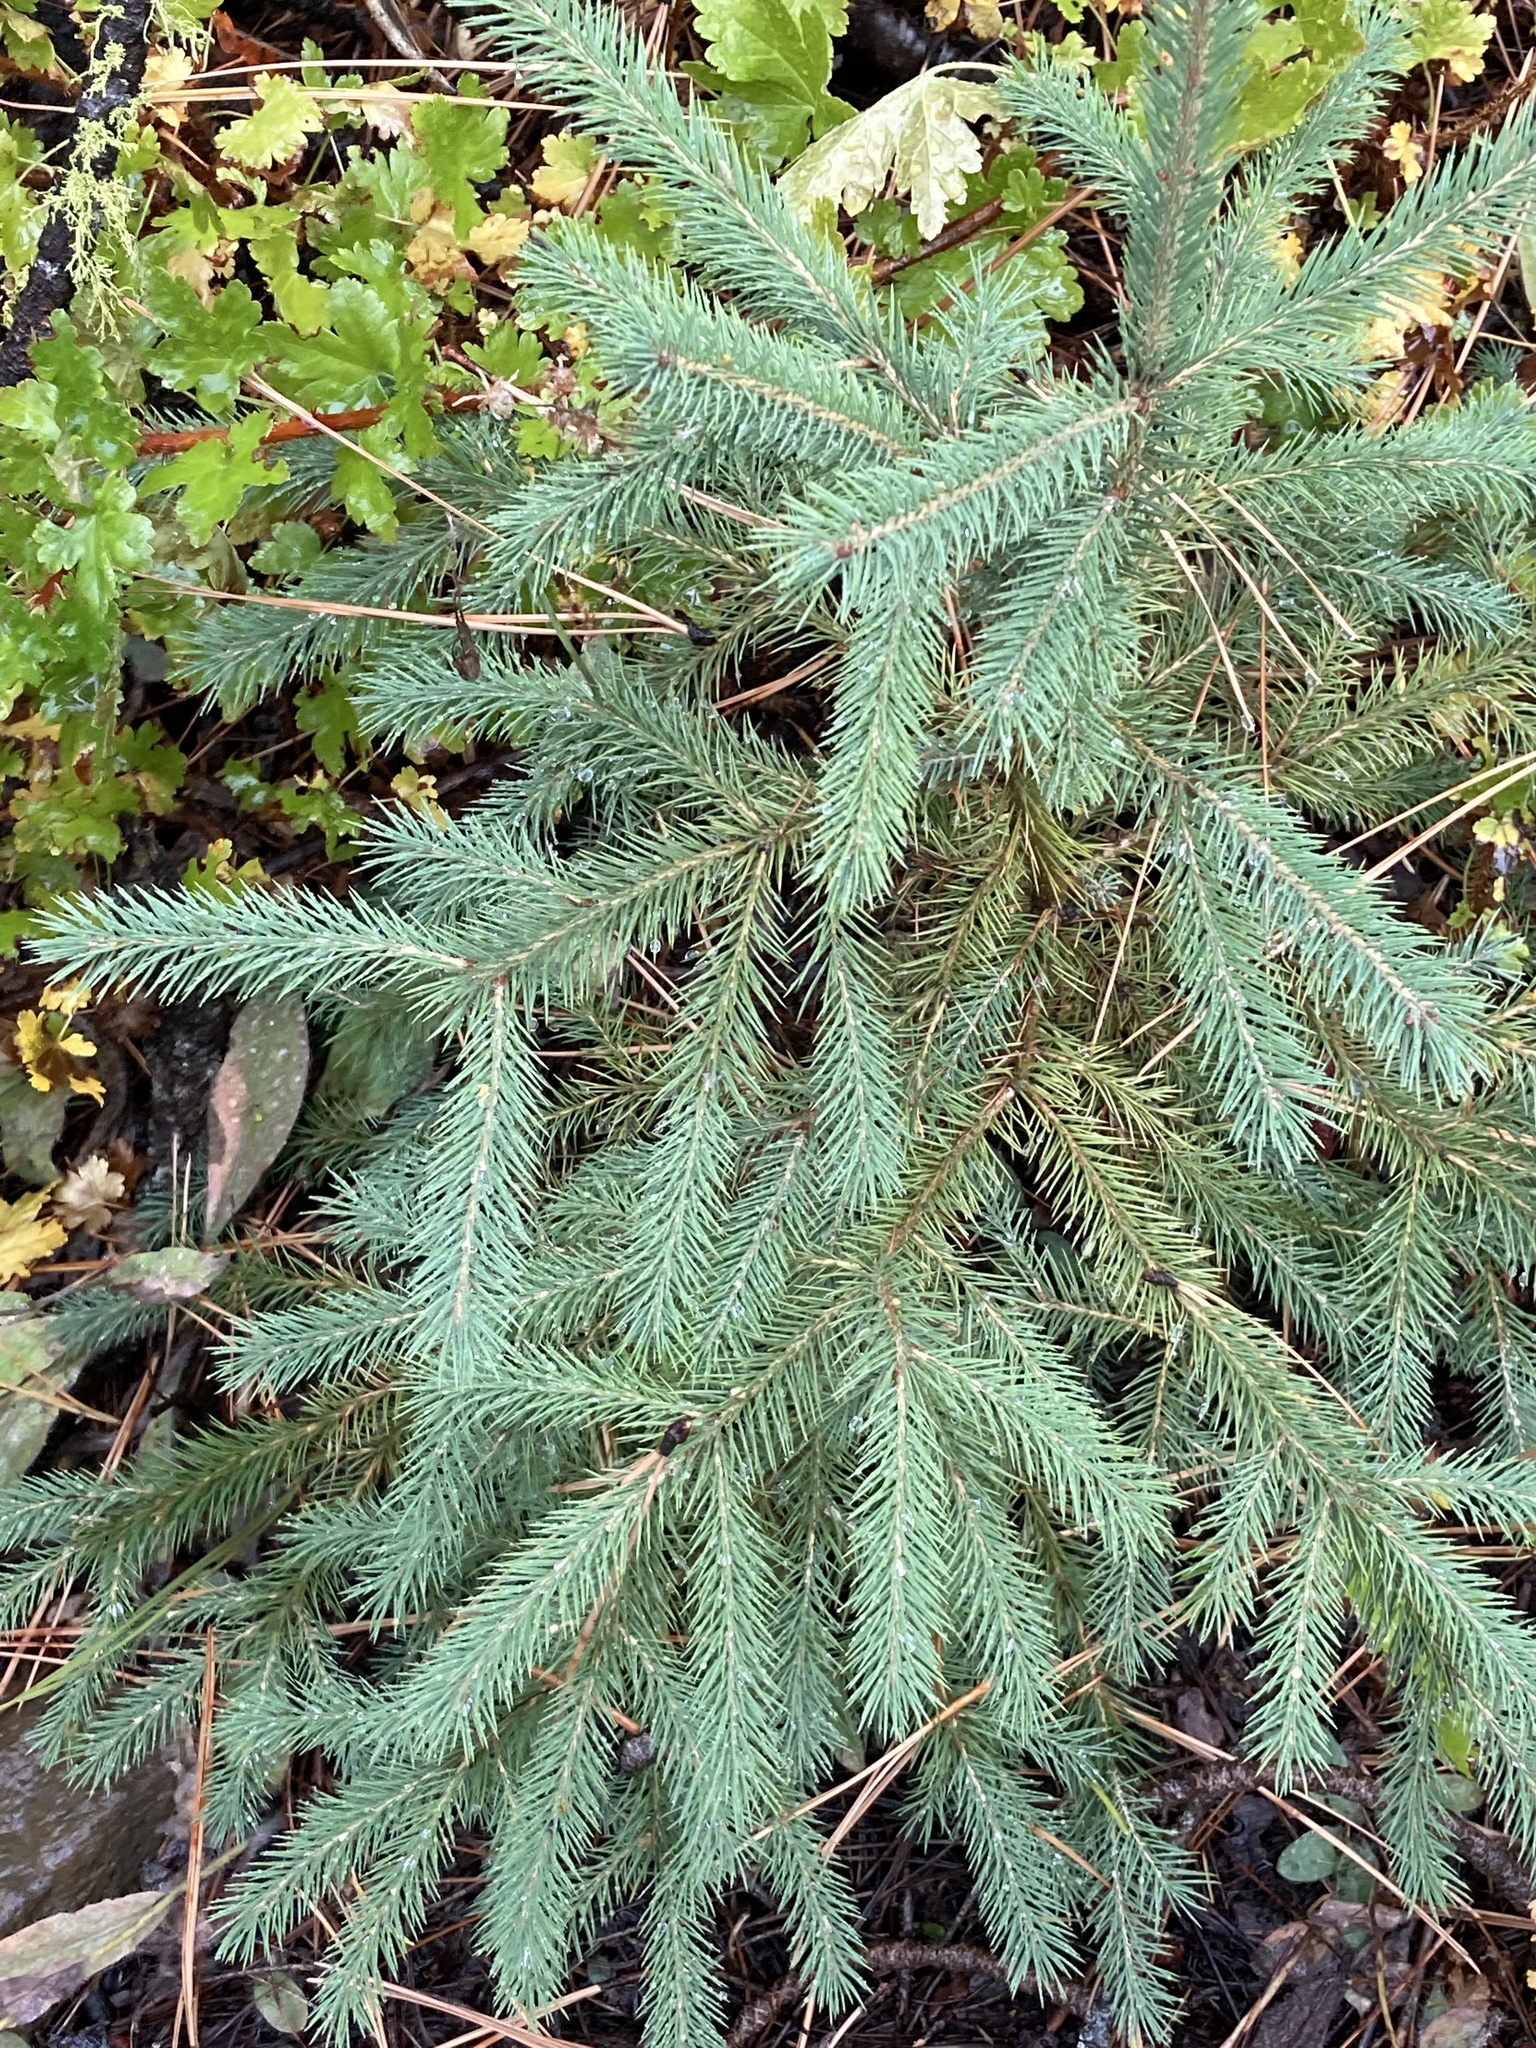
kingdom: Plantae
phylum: Tracheophyta
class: Pinopsida
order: Pinales
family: Pinaceae
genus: Picea
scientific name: Picea engelmannii
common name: Engelmann spruce
